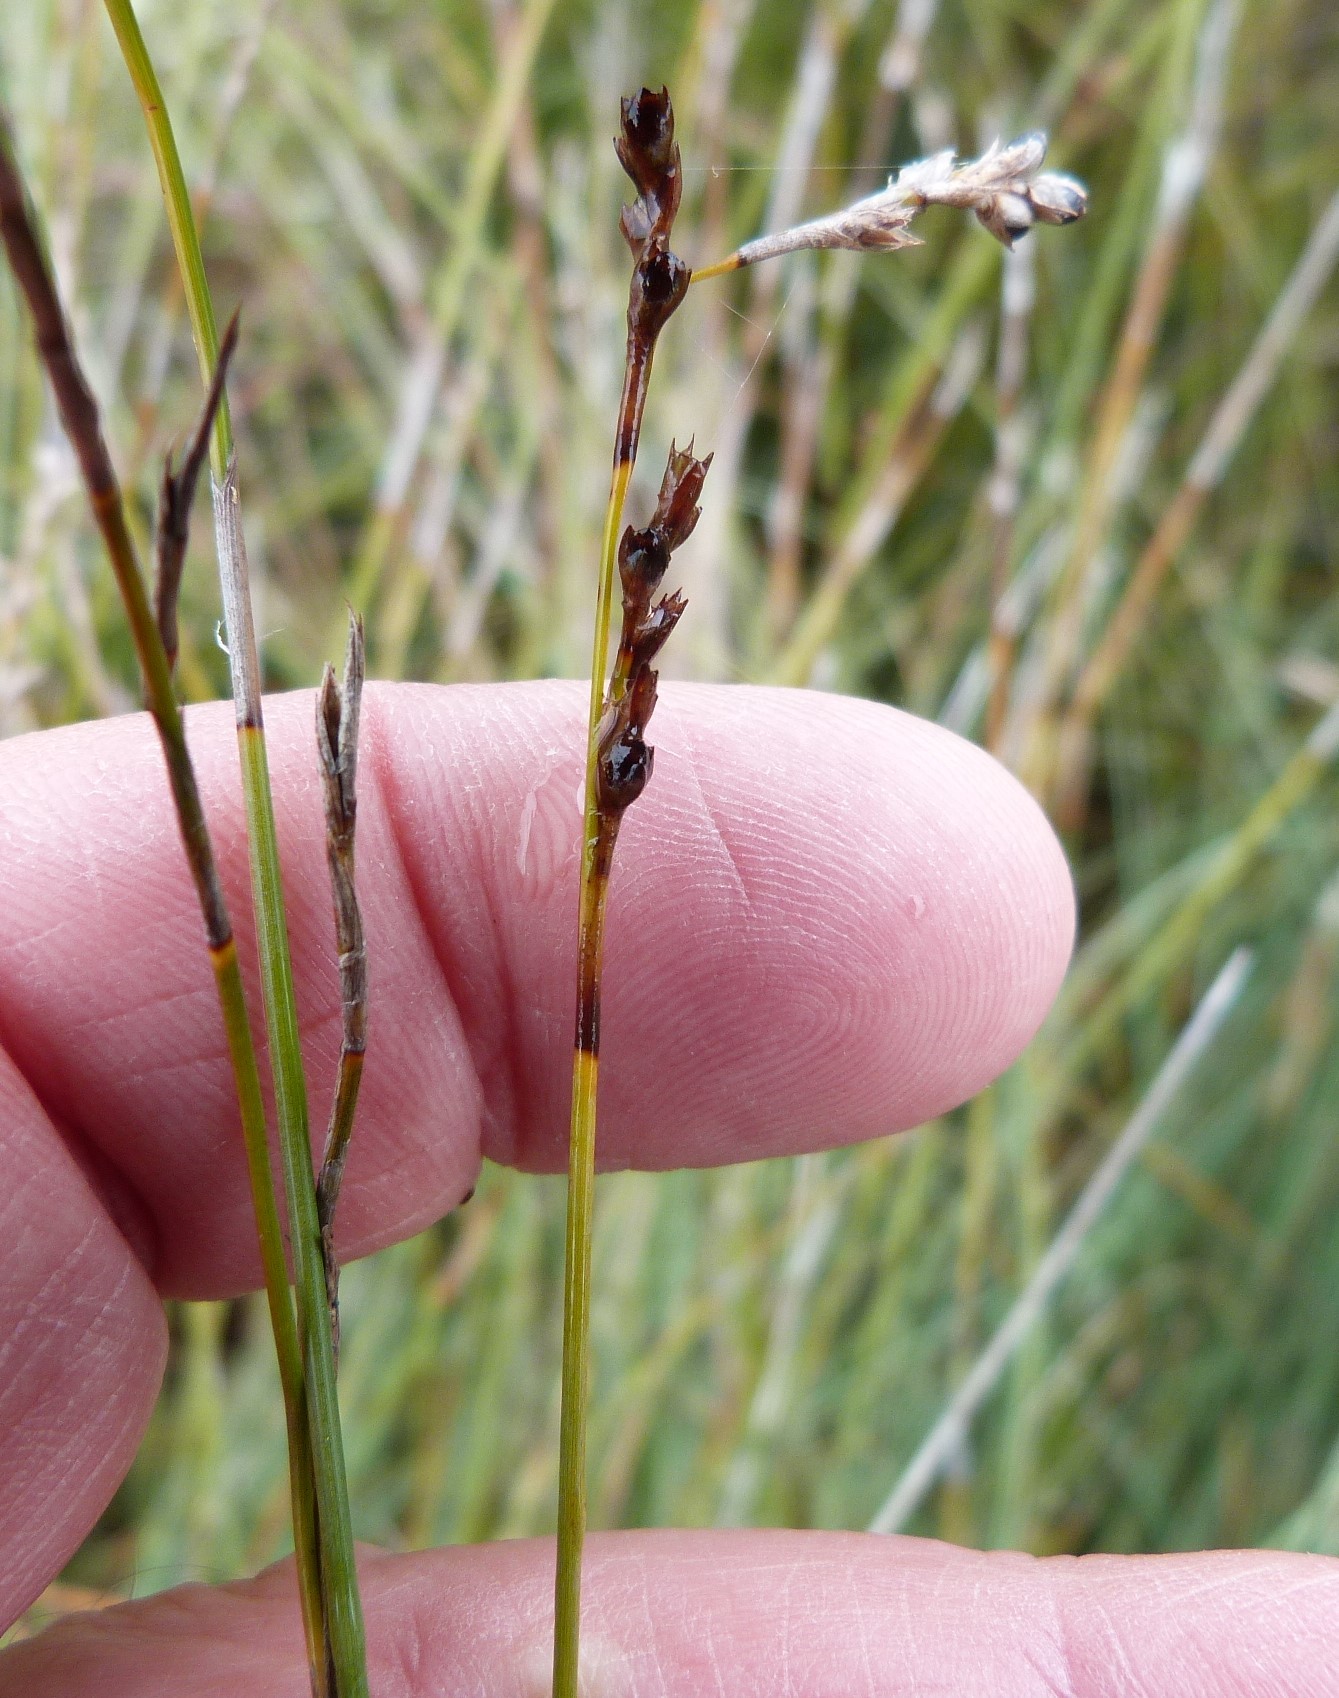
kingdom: Plantae
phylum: Tracheophyta
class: Liliopsida
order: Poales
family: Cyperaceae
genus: Machaerina
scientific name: Machaerina juncea
